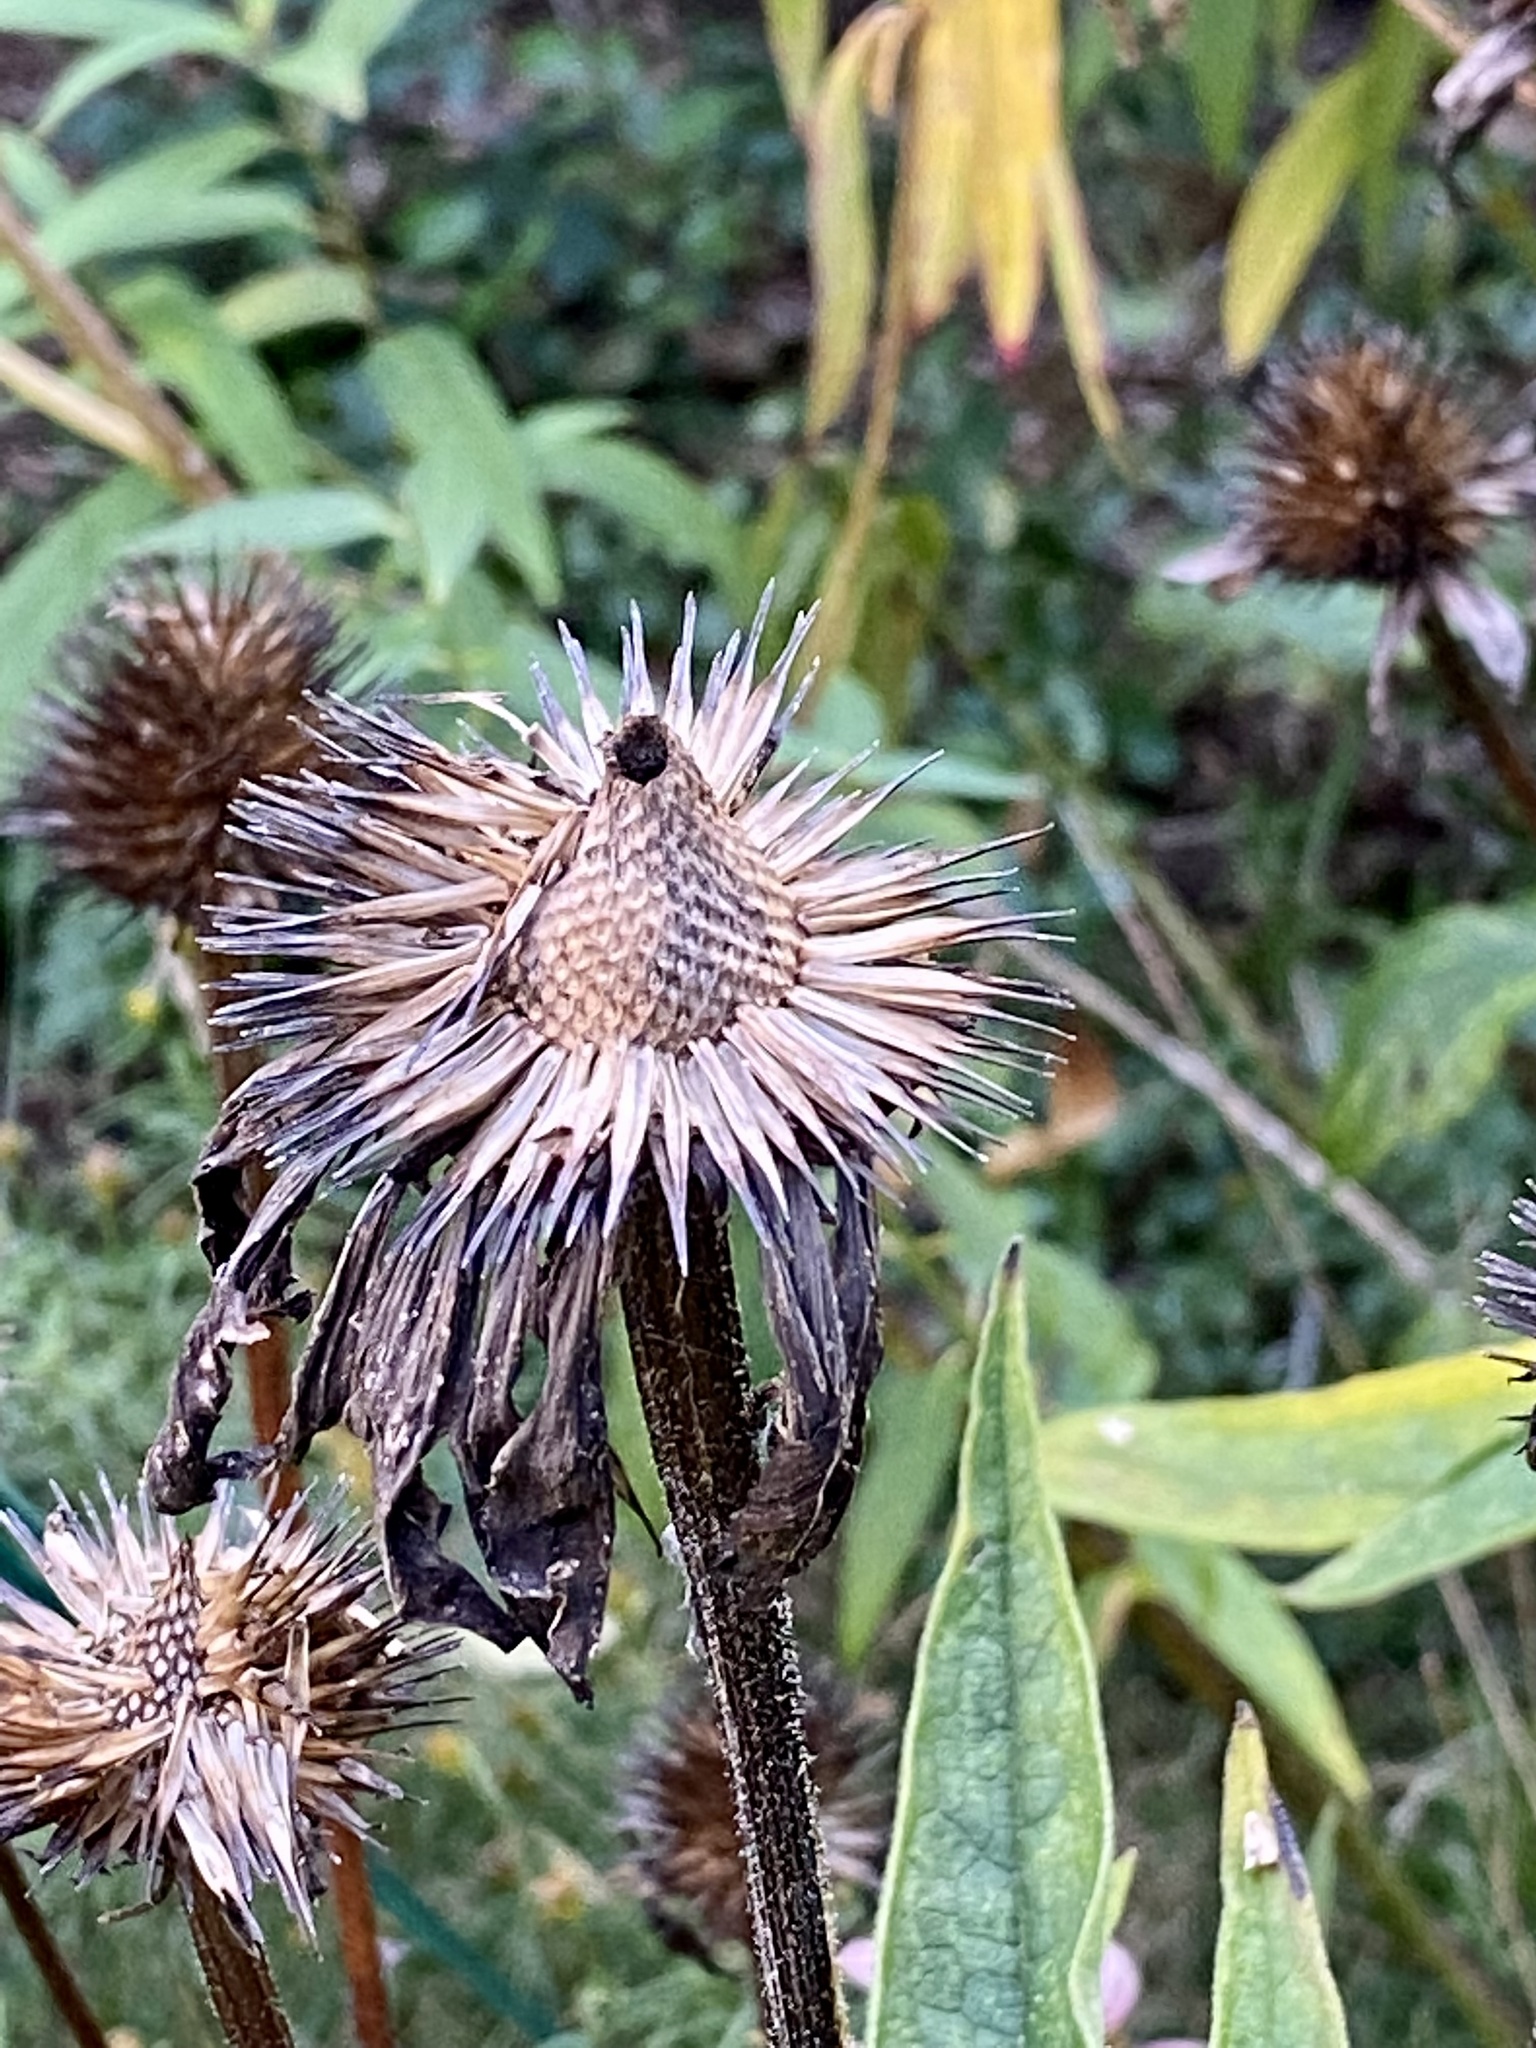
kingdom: Plantae
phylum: Tracheophyta
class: Magnoliopsida
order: Asterales
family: Asteraceae
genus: Echinacea
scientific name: Echinacea purpurea
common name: Broad-leaved purple coneflower
